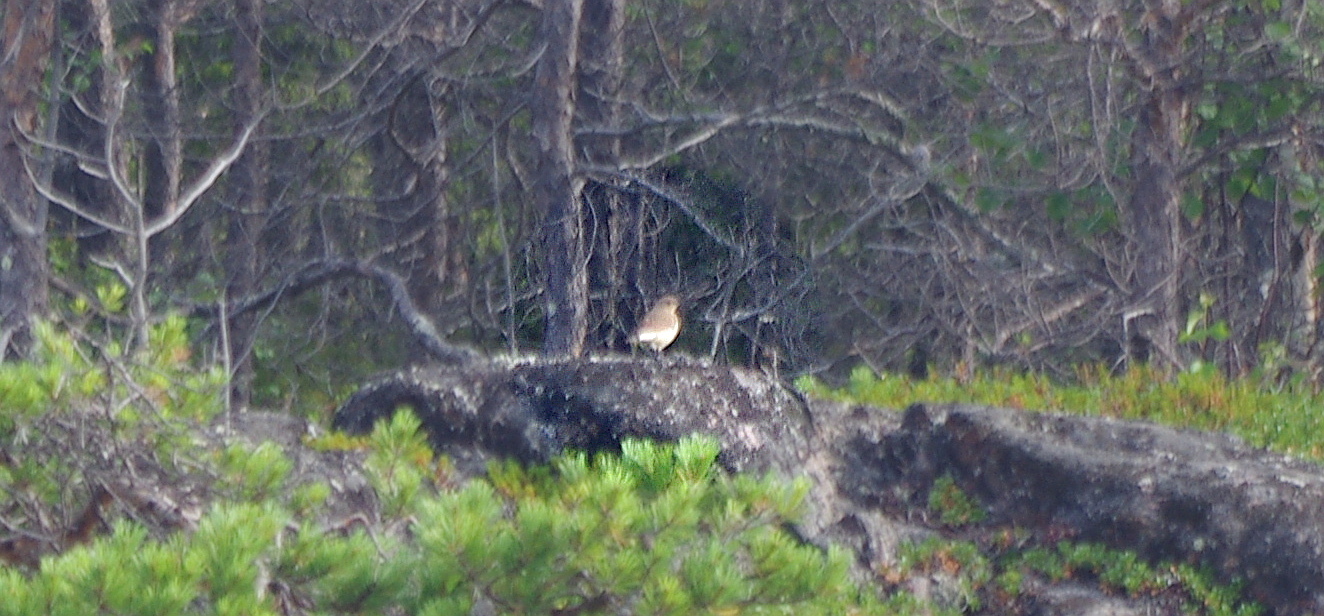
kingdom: Animalia
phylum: Chordata
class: Aves
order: Passeriformes
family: Muscicapidae
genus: Oenanthe
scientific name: Oenanthe oenanthe
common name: Northern wheatear
